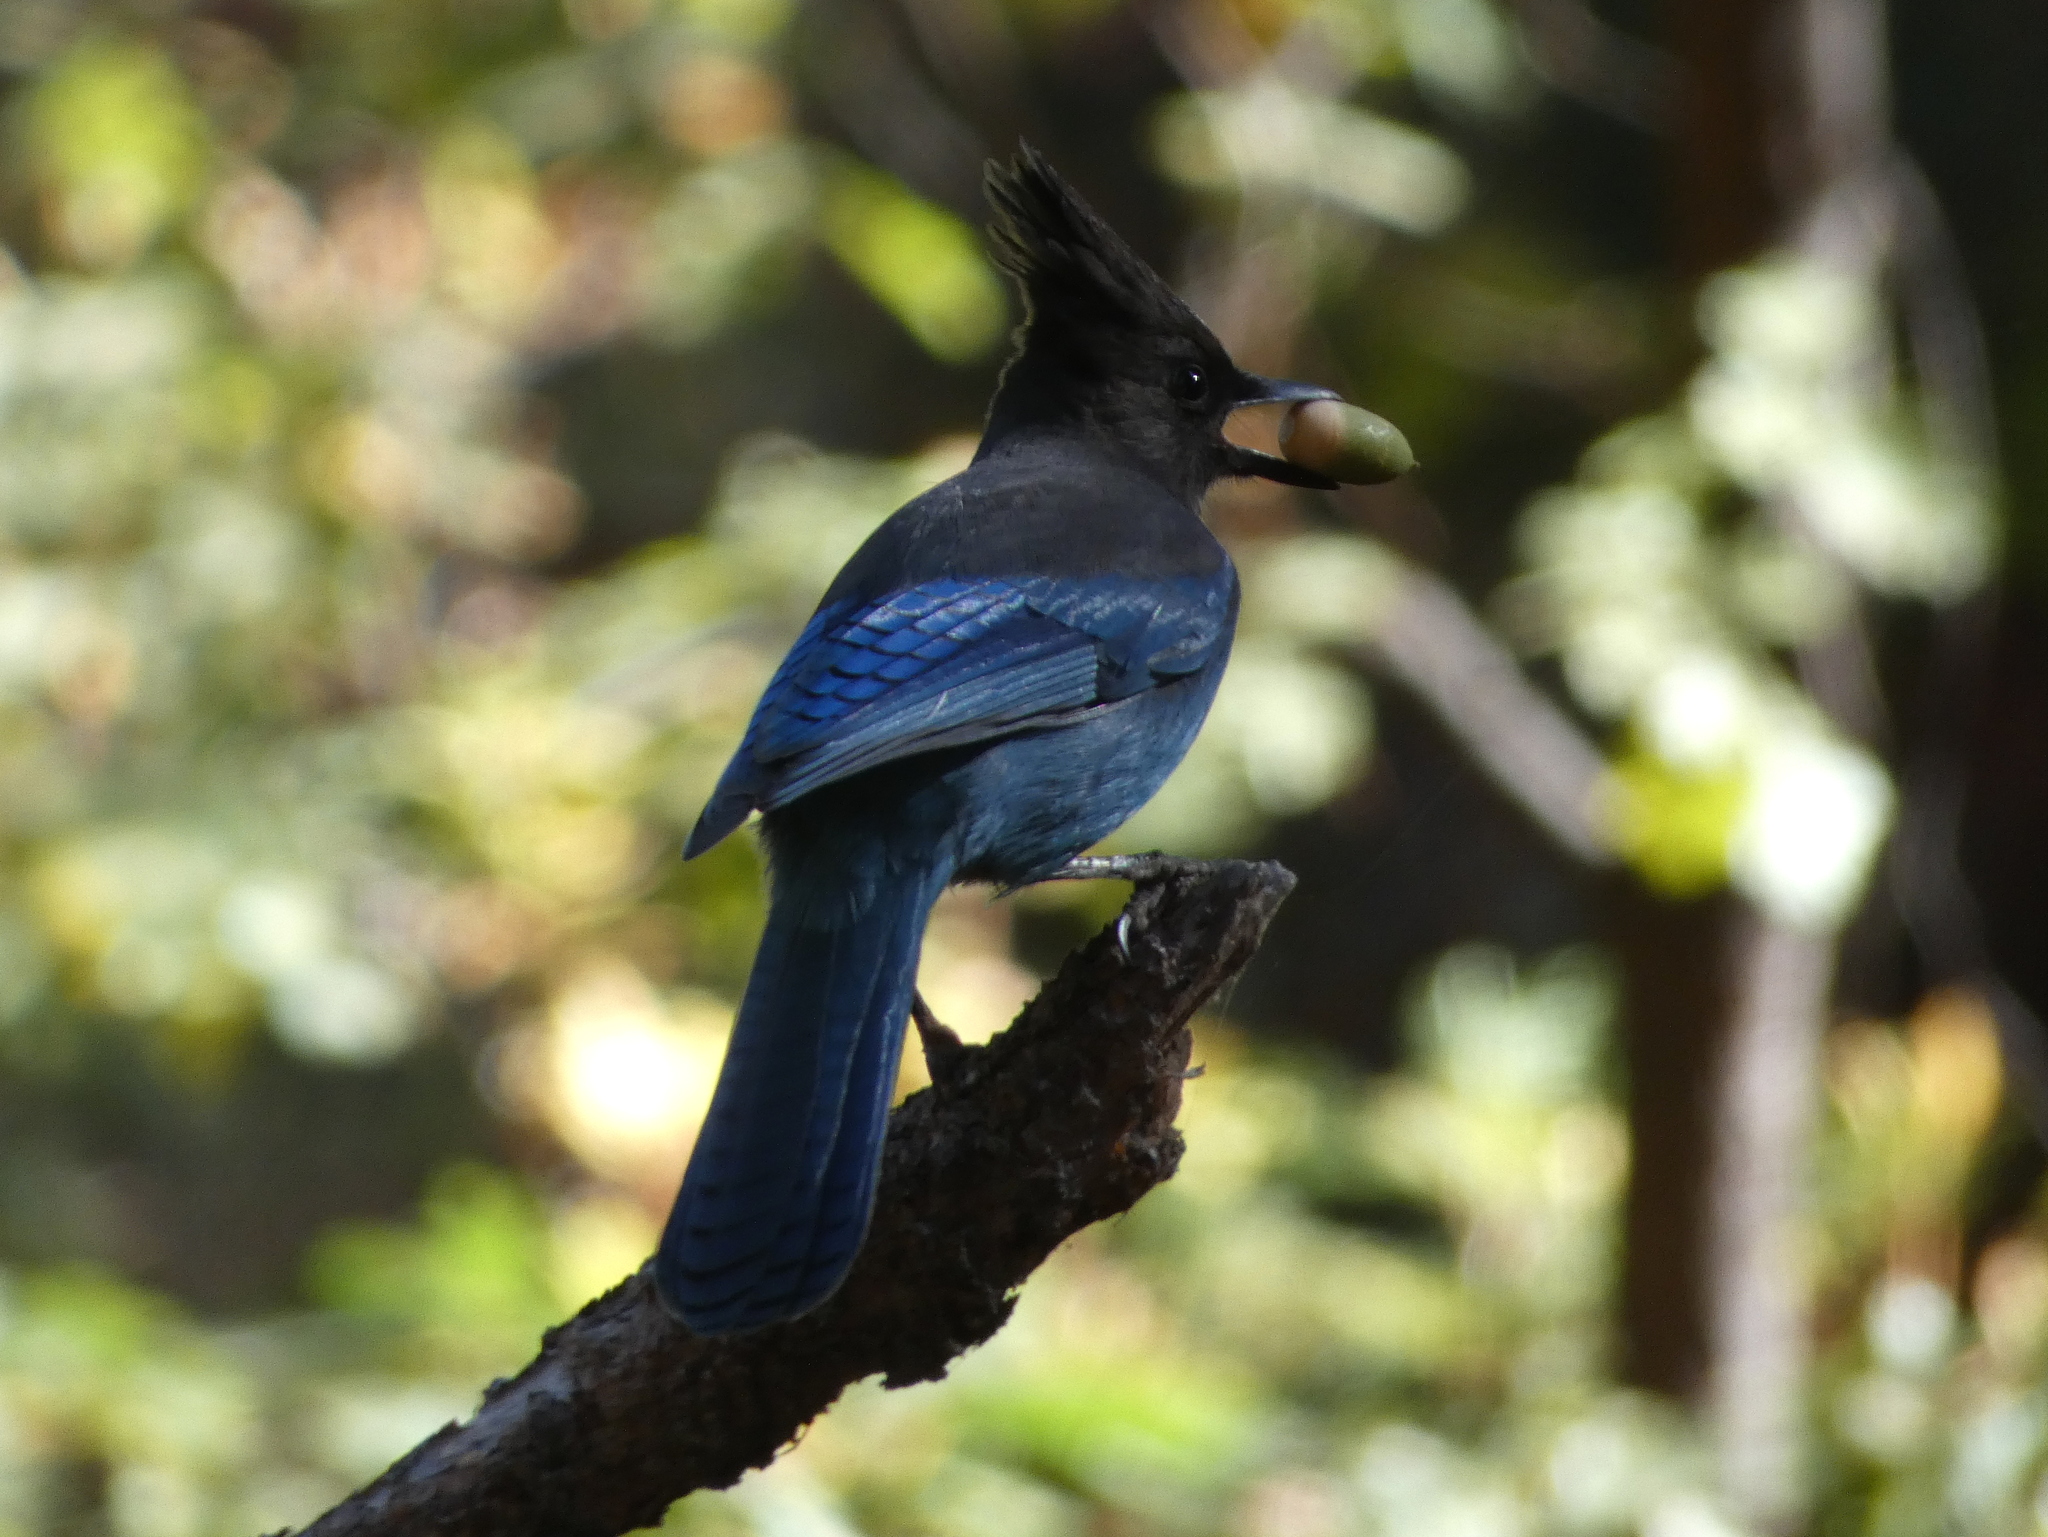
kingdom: Animalia
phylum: Chordata
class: Aves
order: Passeriformes
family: Corvidae
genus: Cyanocitta
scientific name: Cyanocitta stelleri
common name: Steller's jay
